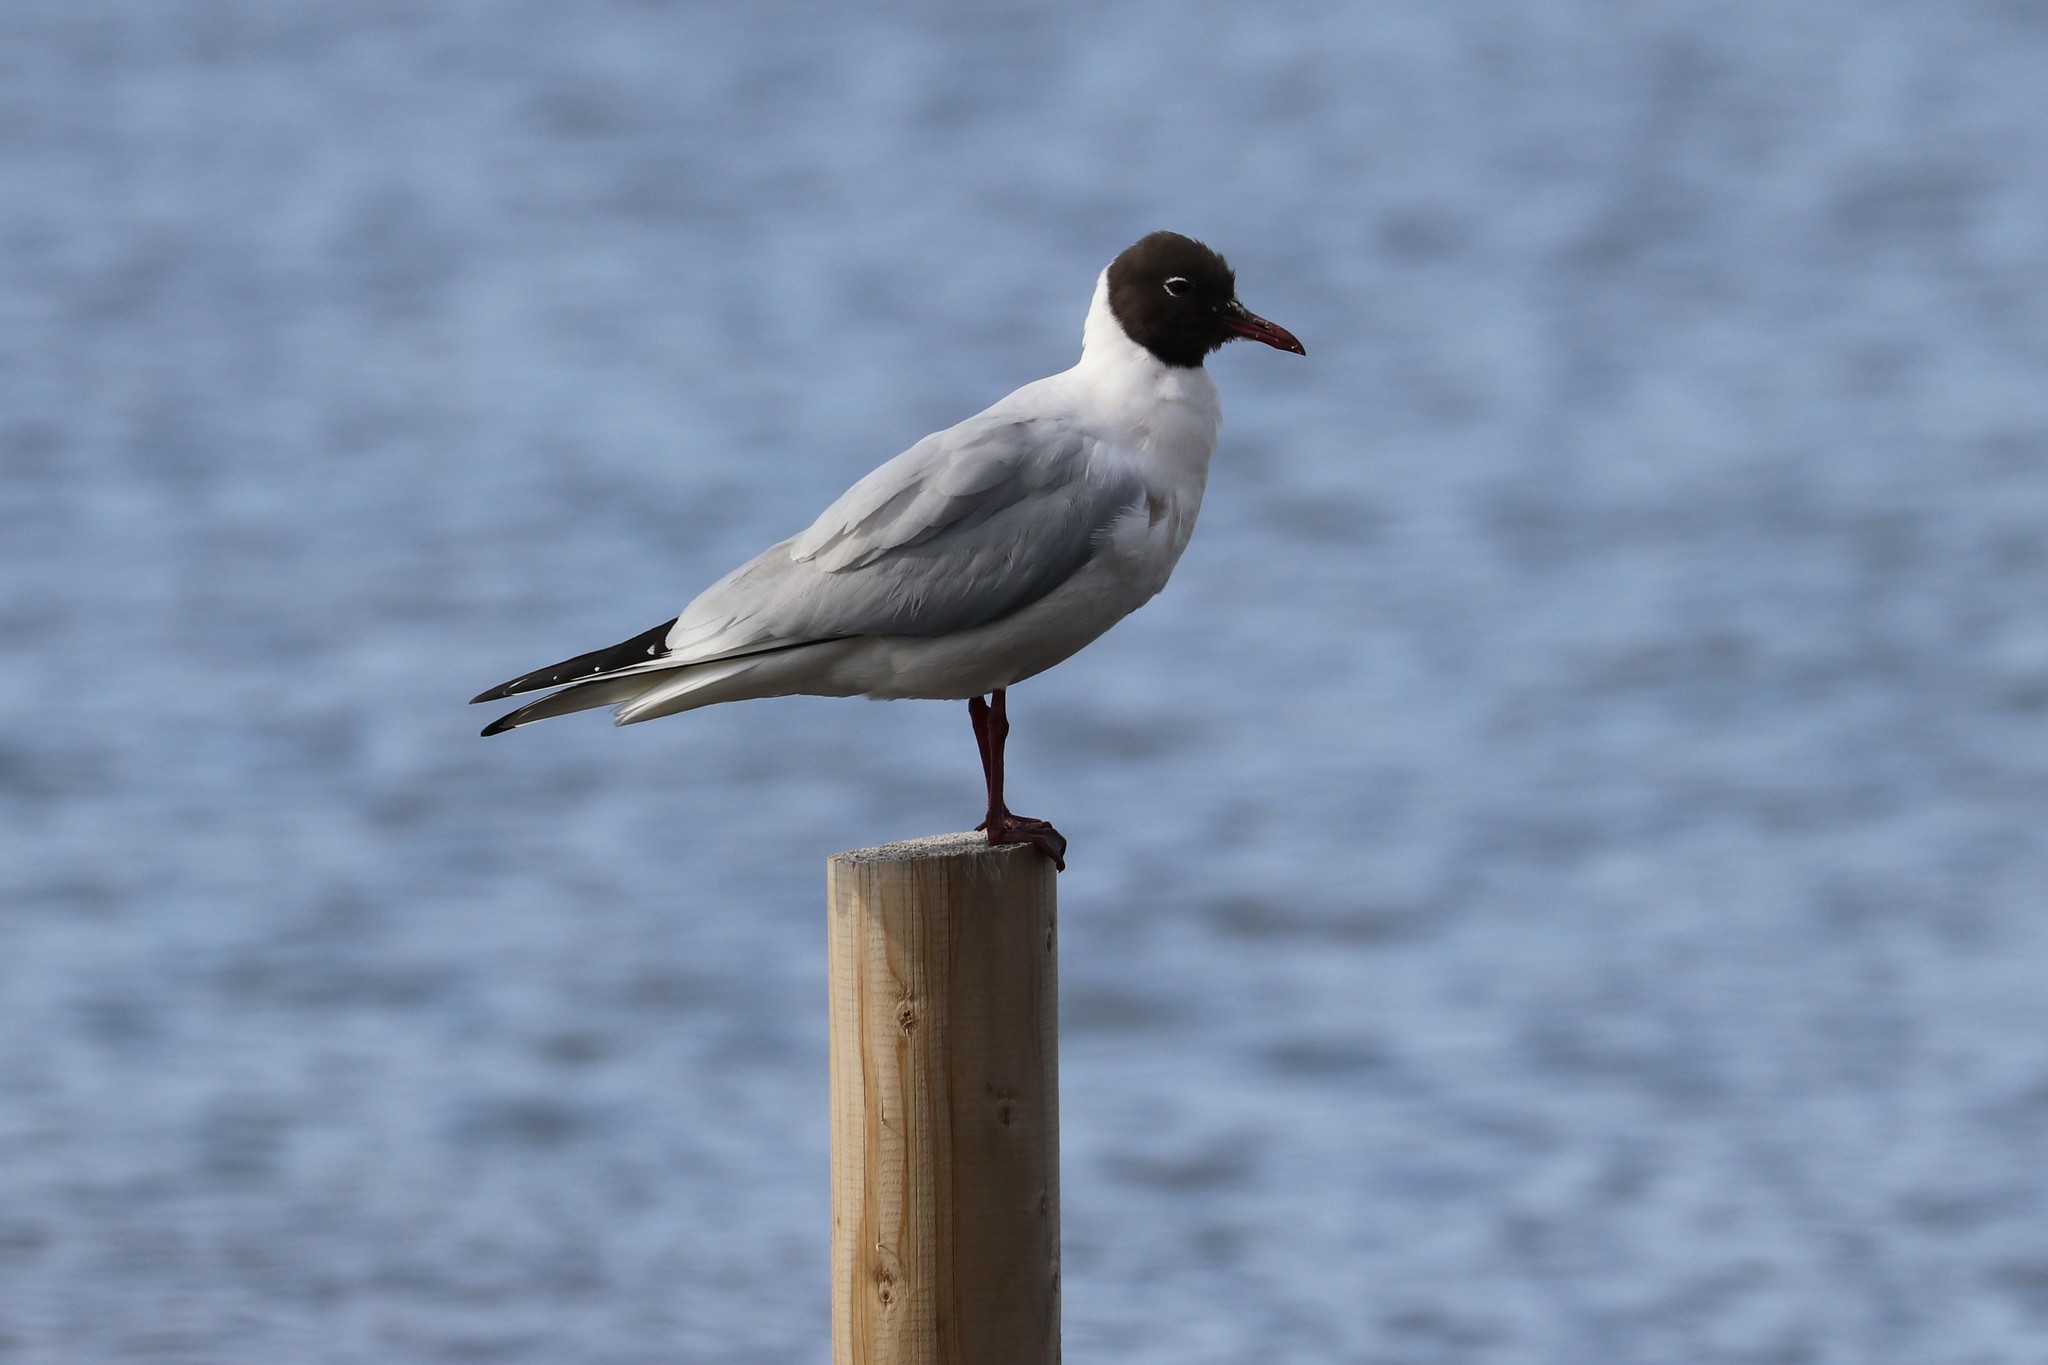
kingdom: Animalia
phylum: Chordata
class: Aves
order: Charadriiformes
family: Laridae
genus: Chroicocephalus
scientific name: Chroicocephalus ridibundus
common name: Black-headed gull
